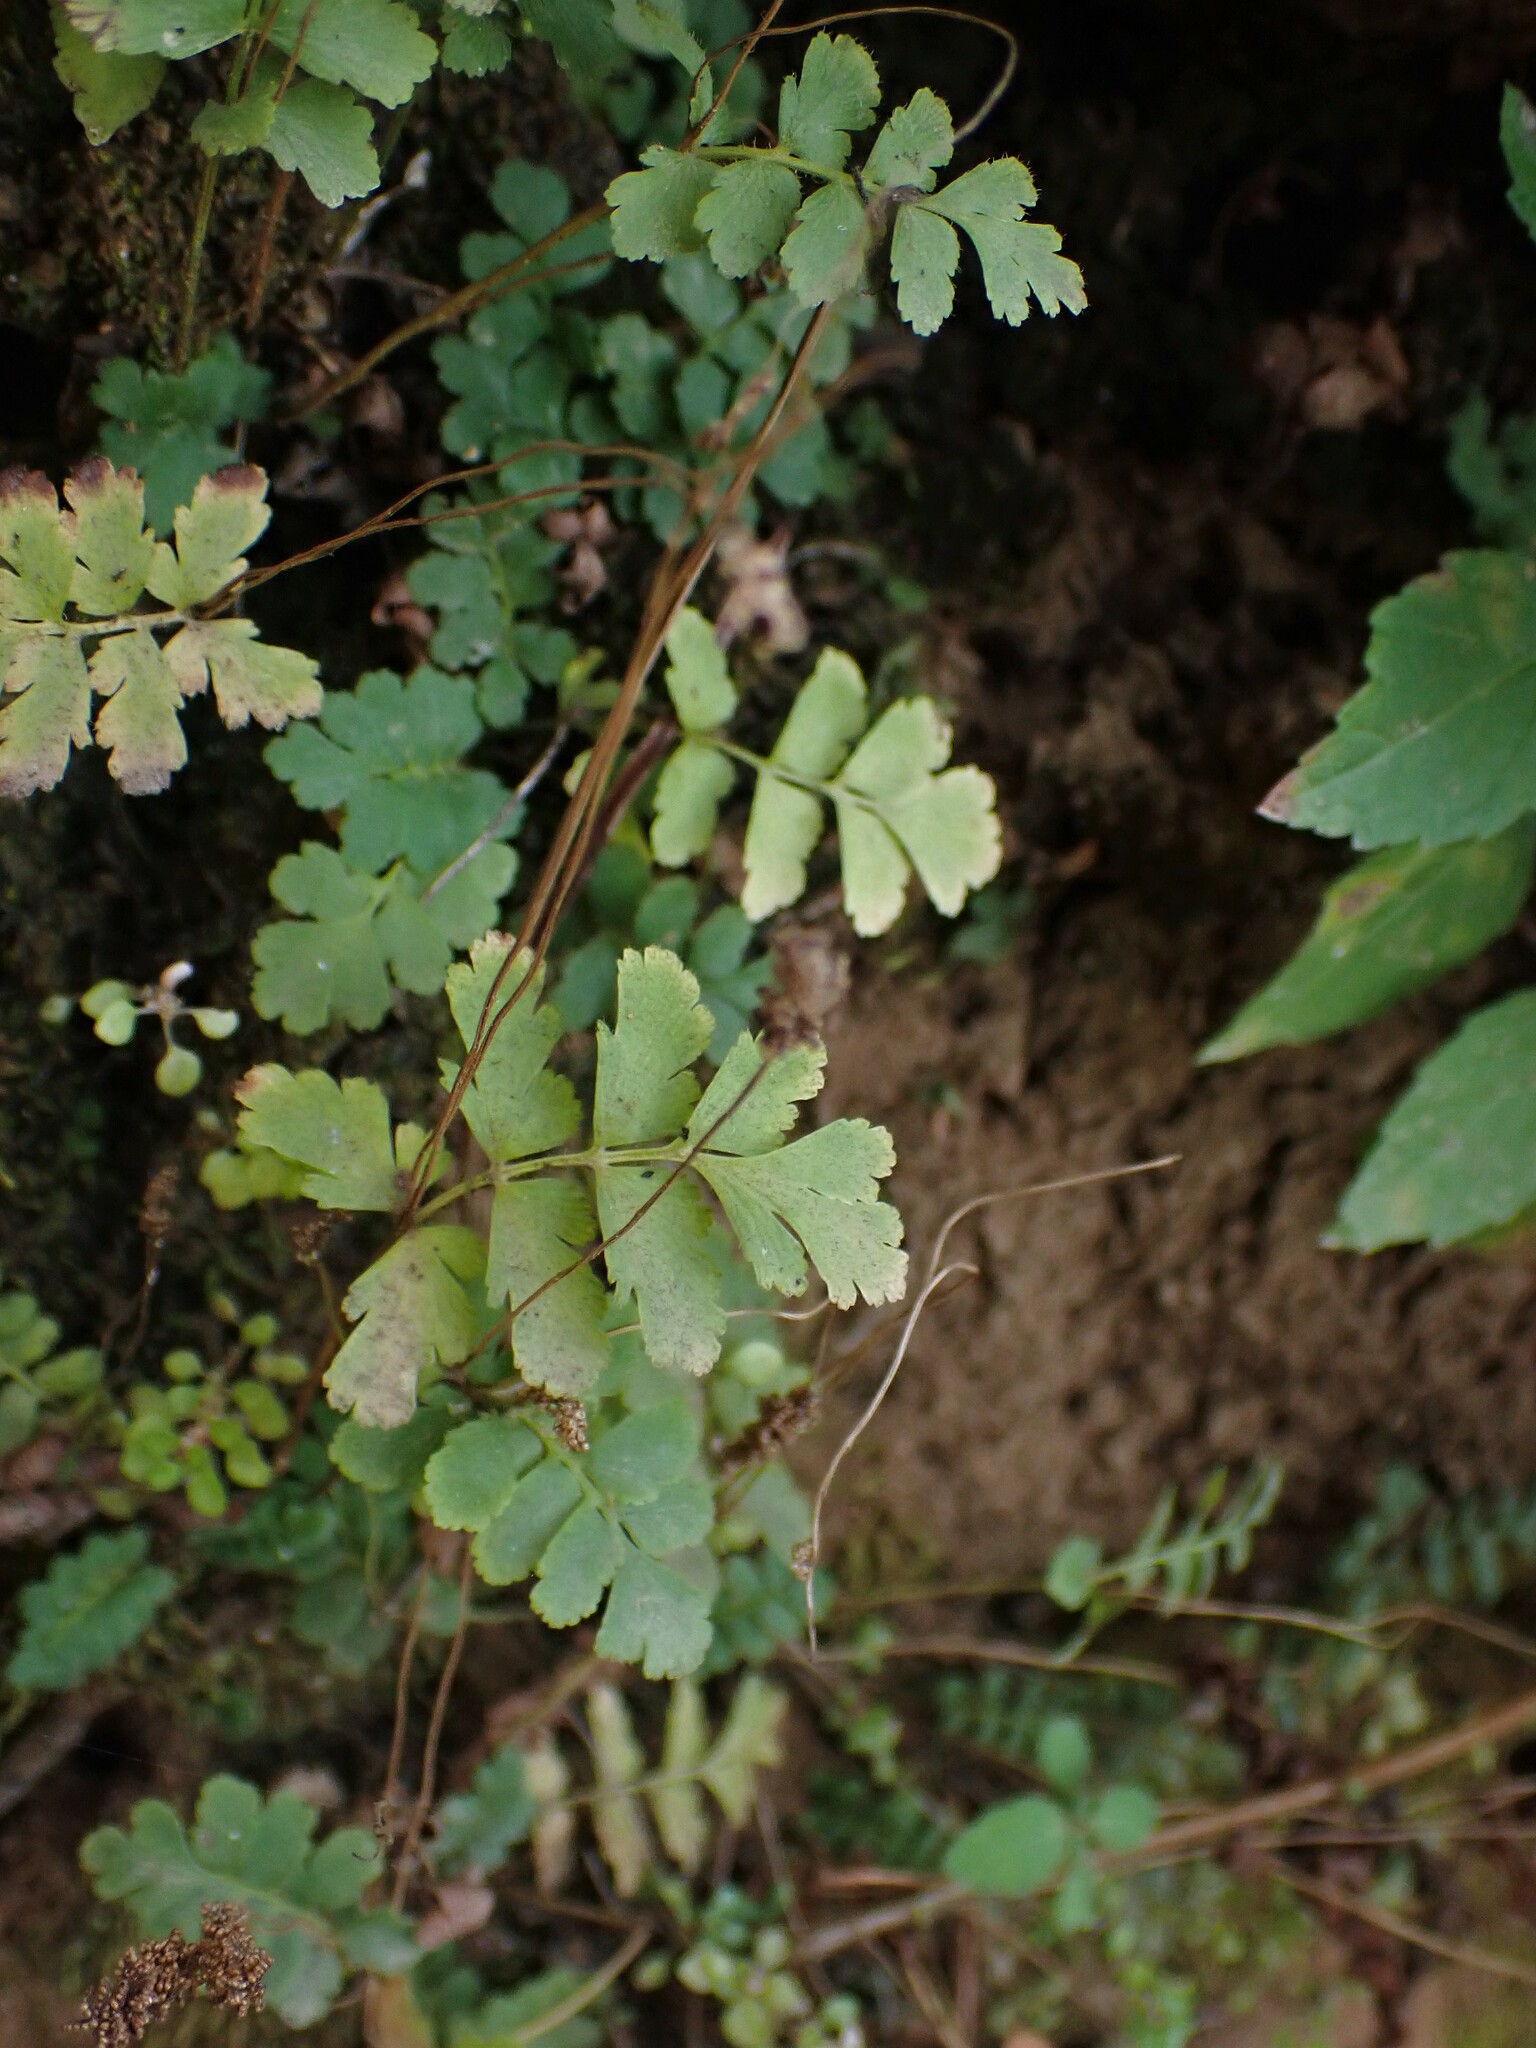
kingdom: Plantae
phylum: Tracheophyta
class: Polypodiopsida
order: Schizaeales
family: Anemiaceae
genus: Anemia
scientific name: Anemia hirsuta
